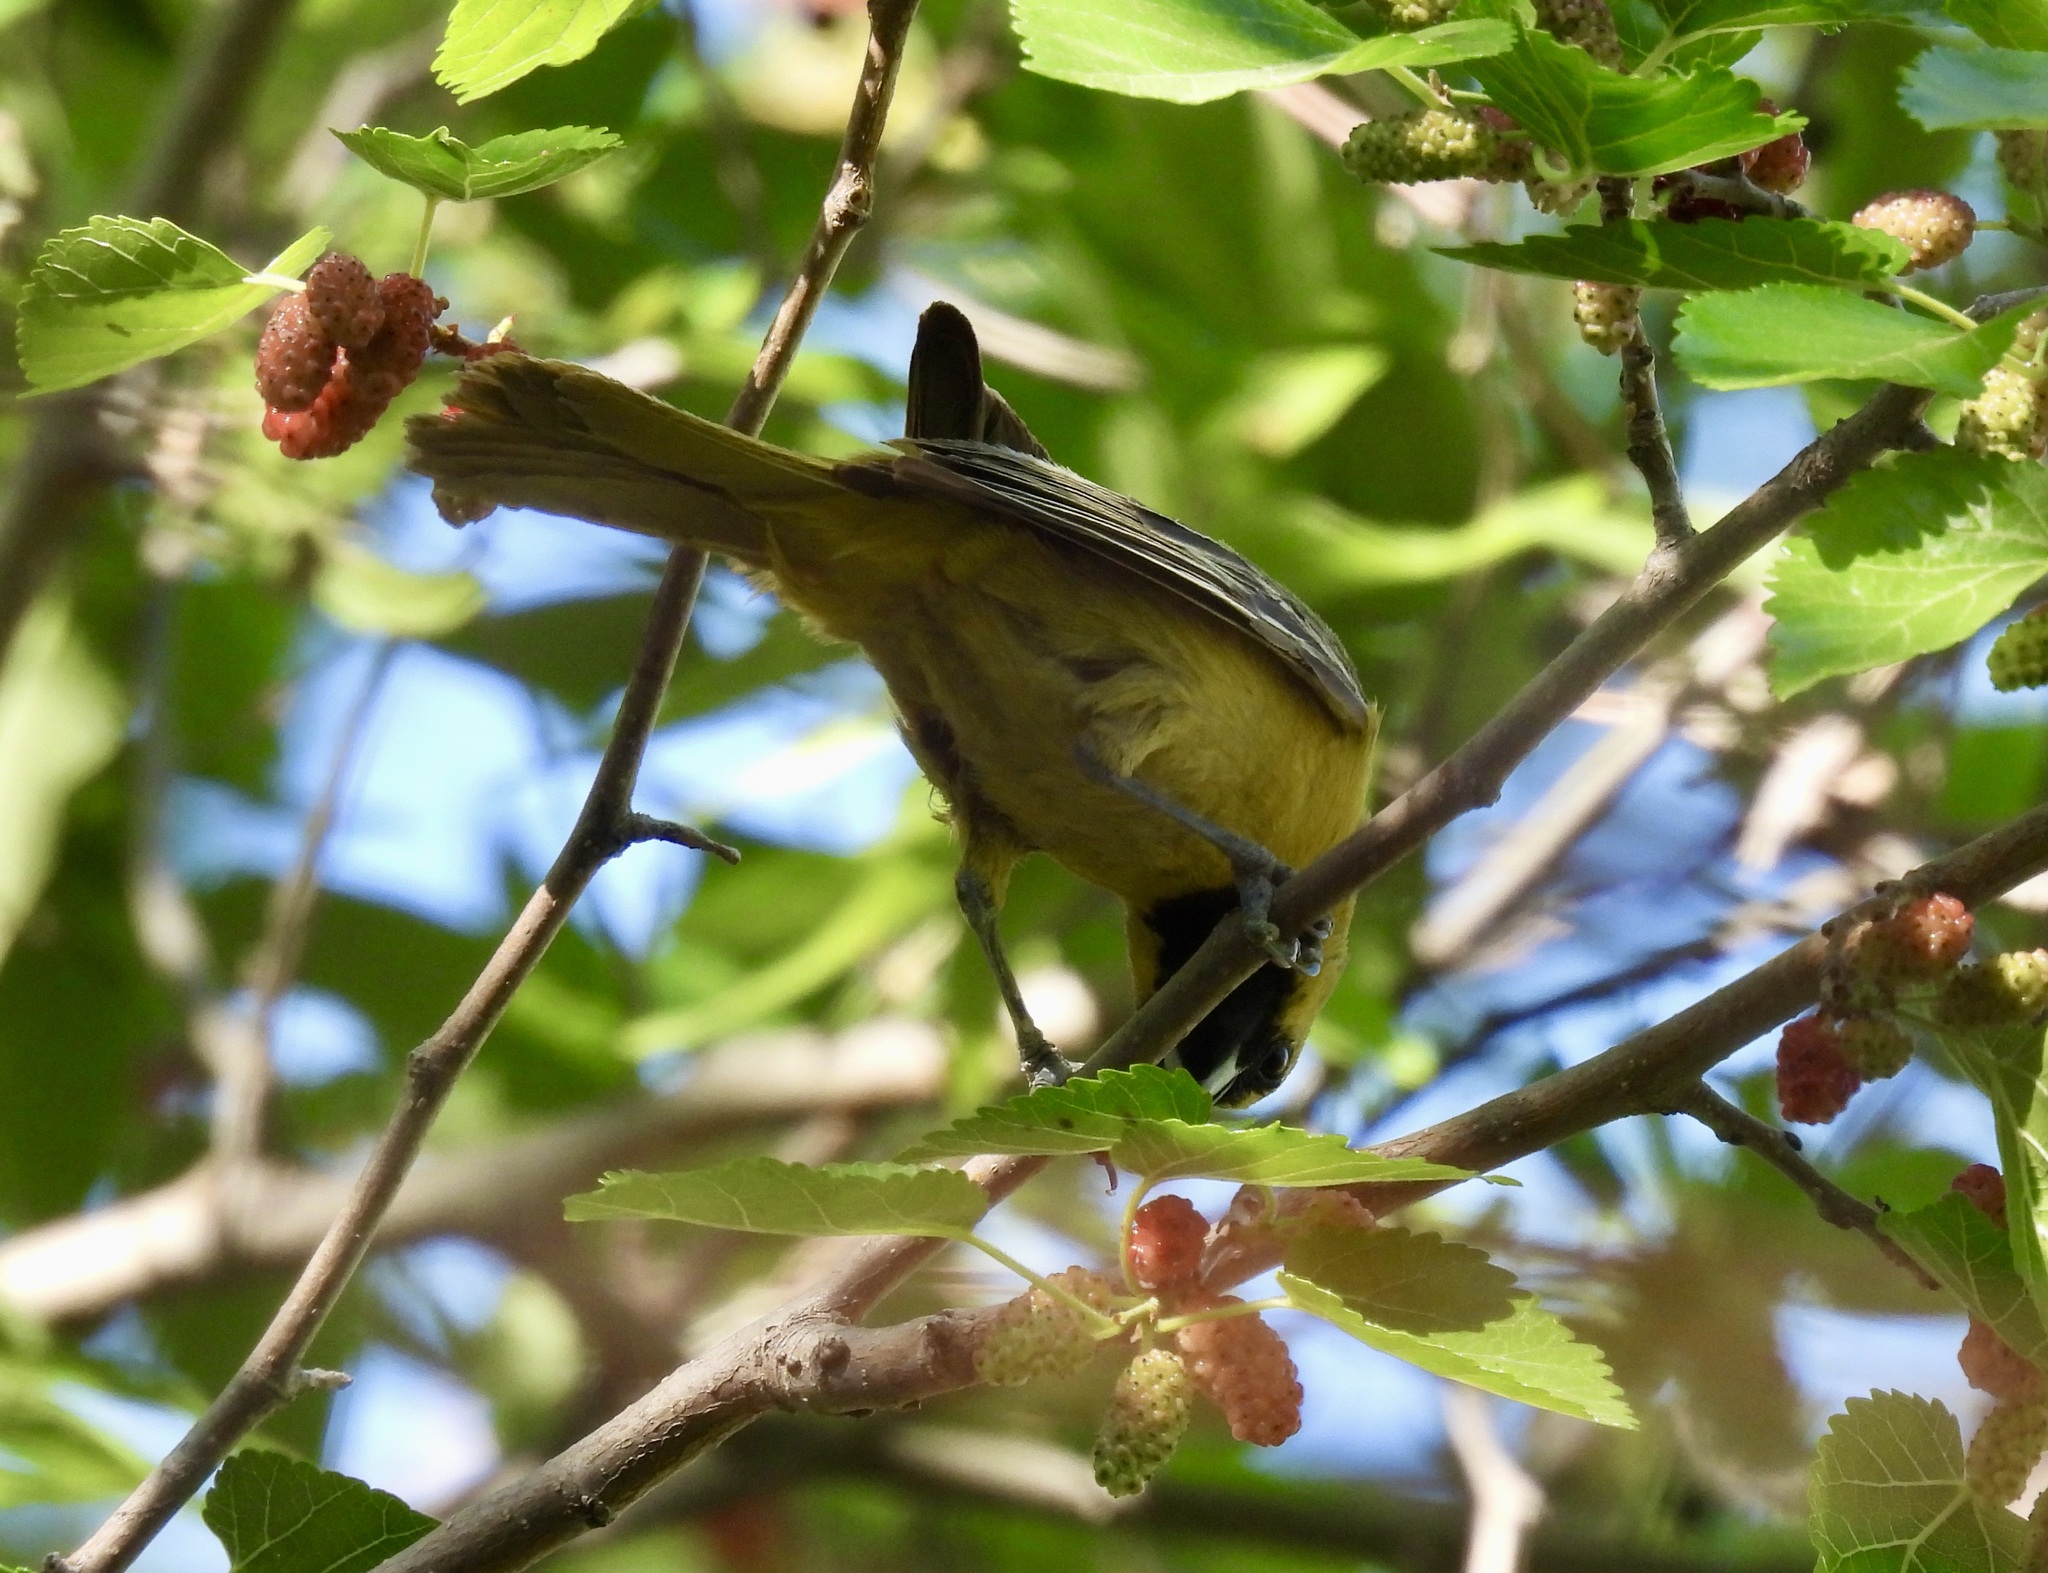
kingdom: Animalia
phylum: Chordata
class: Aves
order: Passeriformes
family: Icteridae
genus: Icterus
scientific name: Icterus spurius
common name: Orchard oriole
